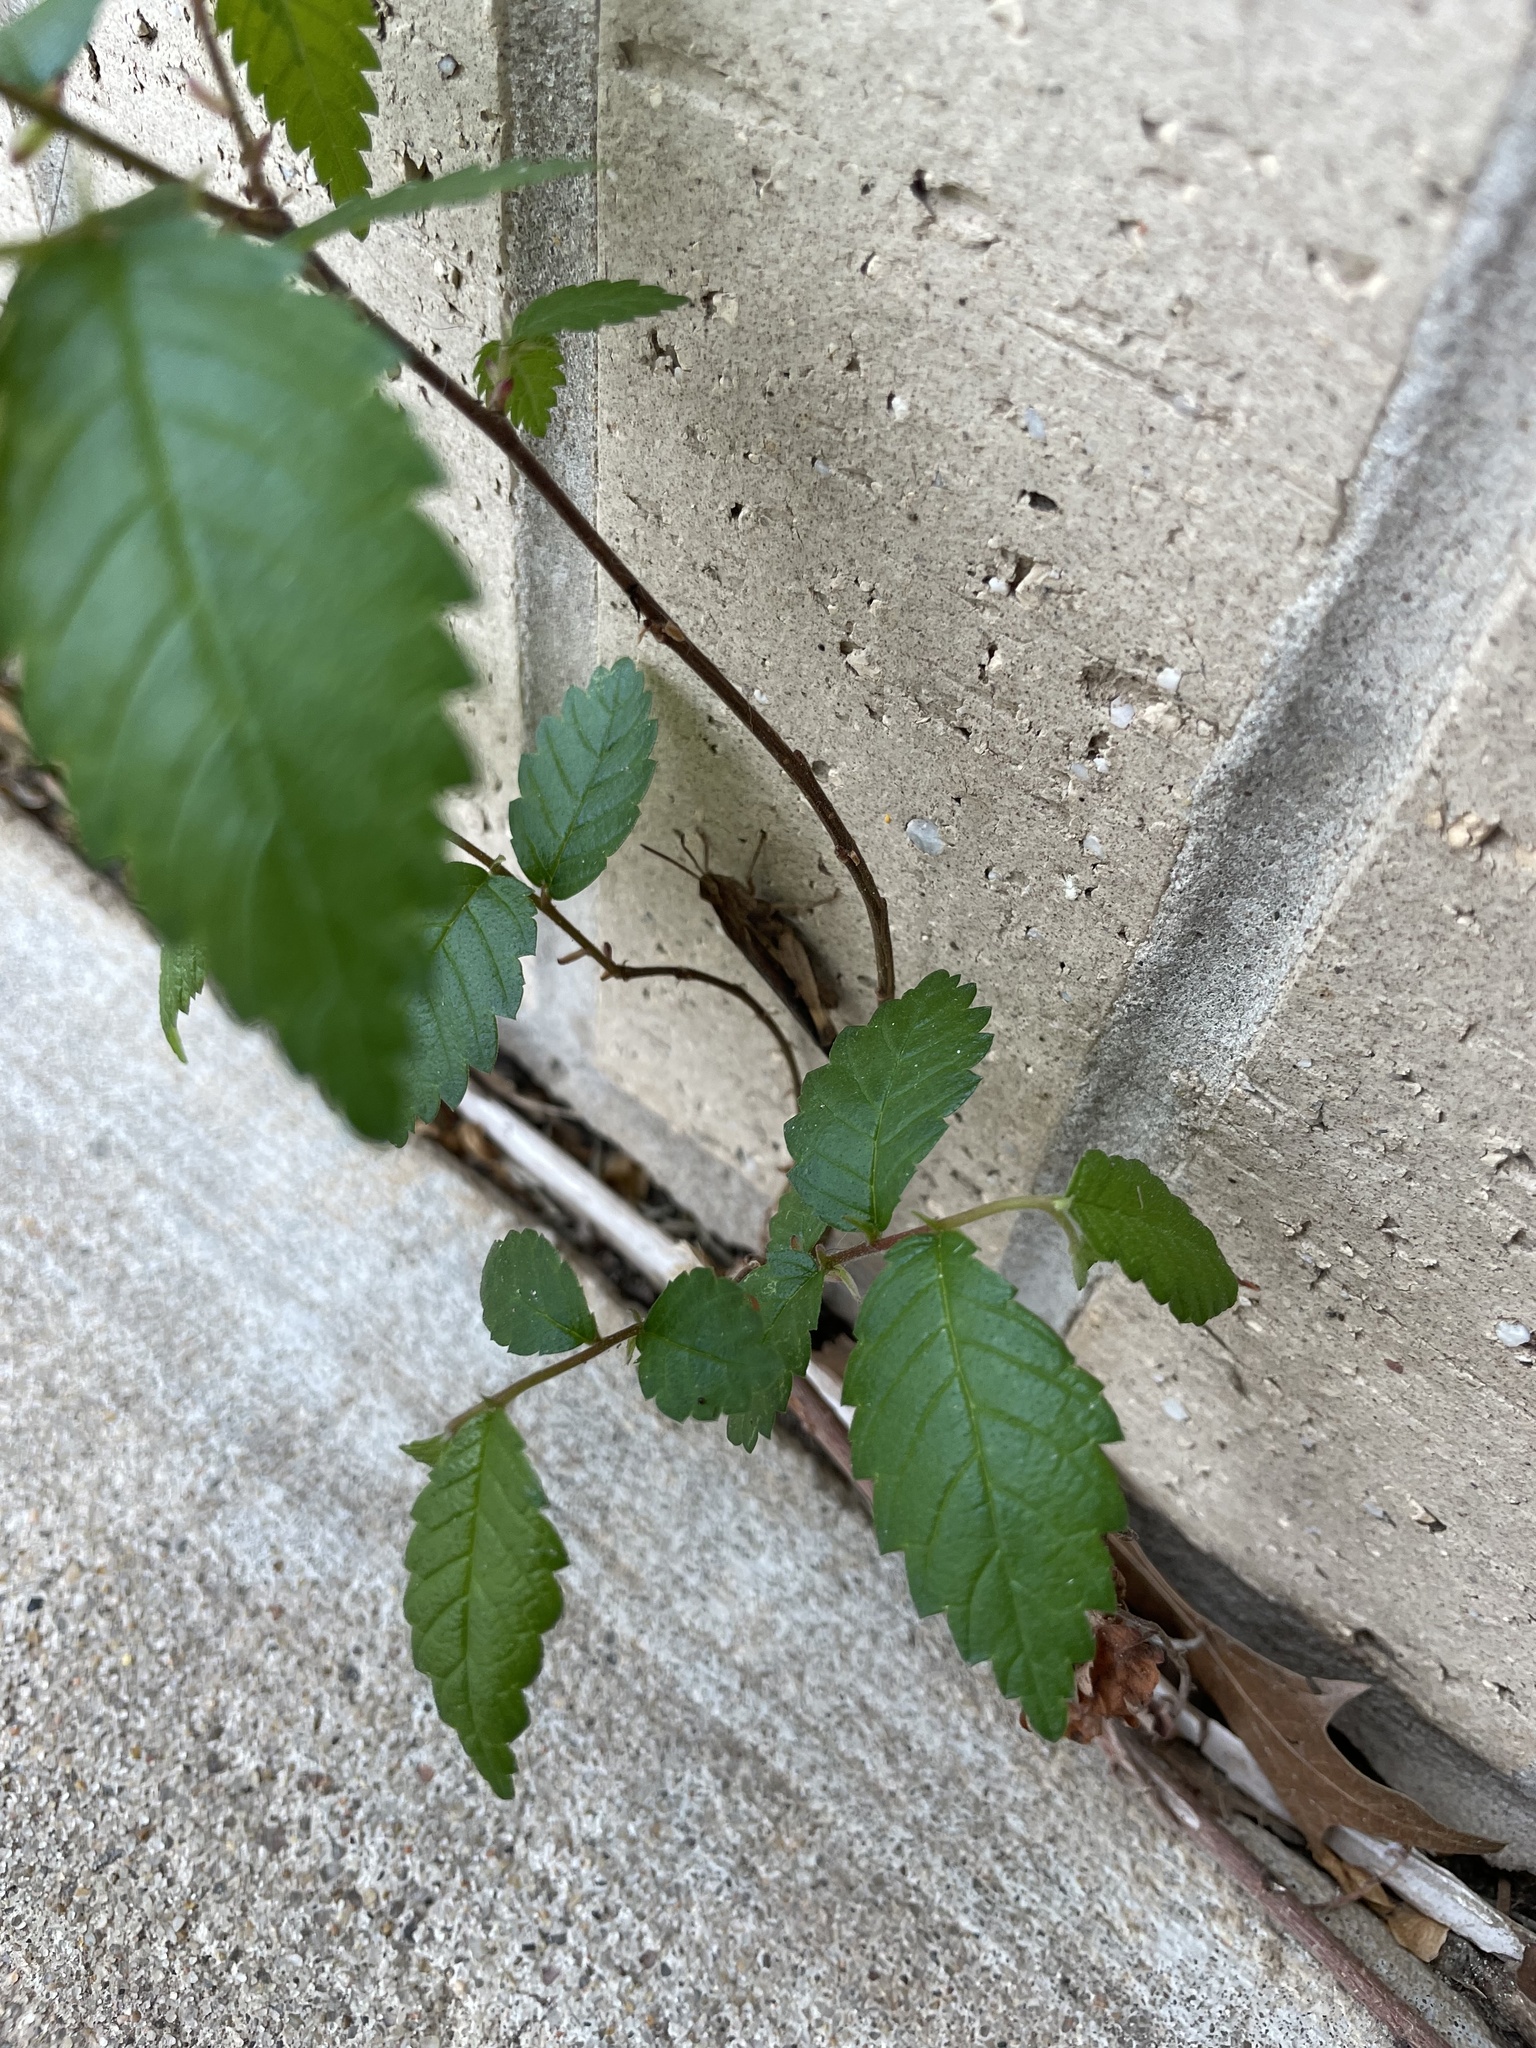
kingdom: Animalia
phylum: Arthropoda
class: Insecta
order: Orthoptera
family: Acrididae
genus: Chortophaga
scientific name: Chortophaga viridifasciata
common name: Green-striped grasshopper
